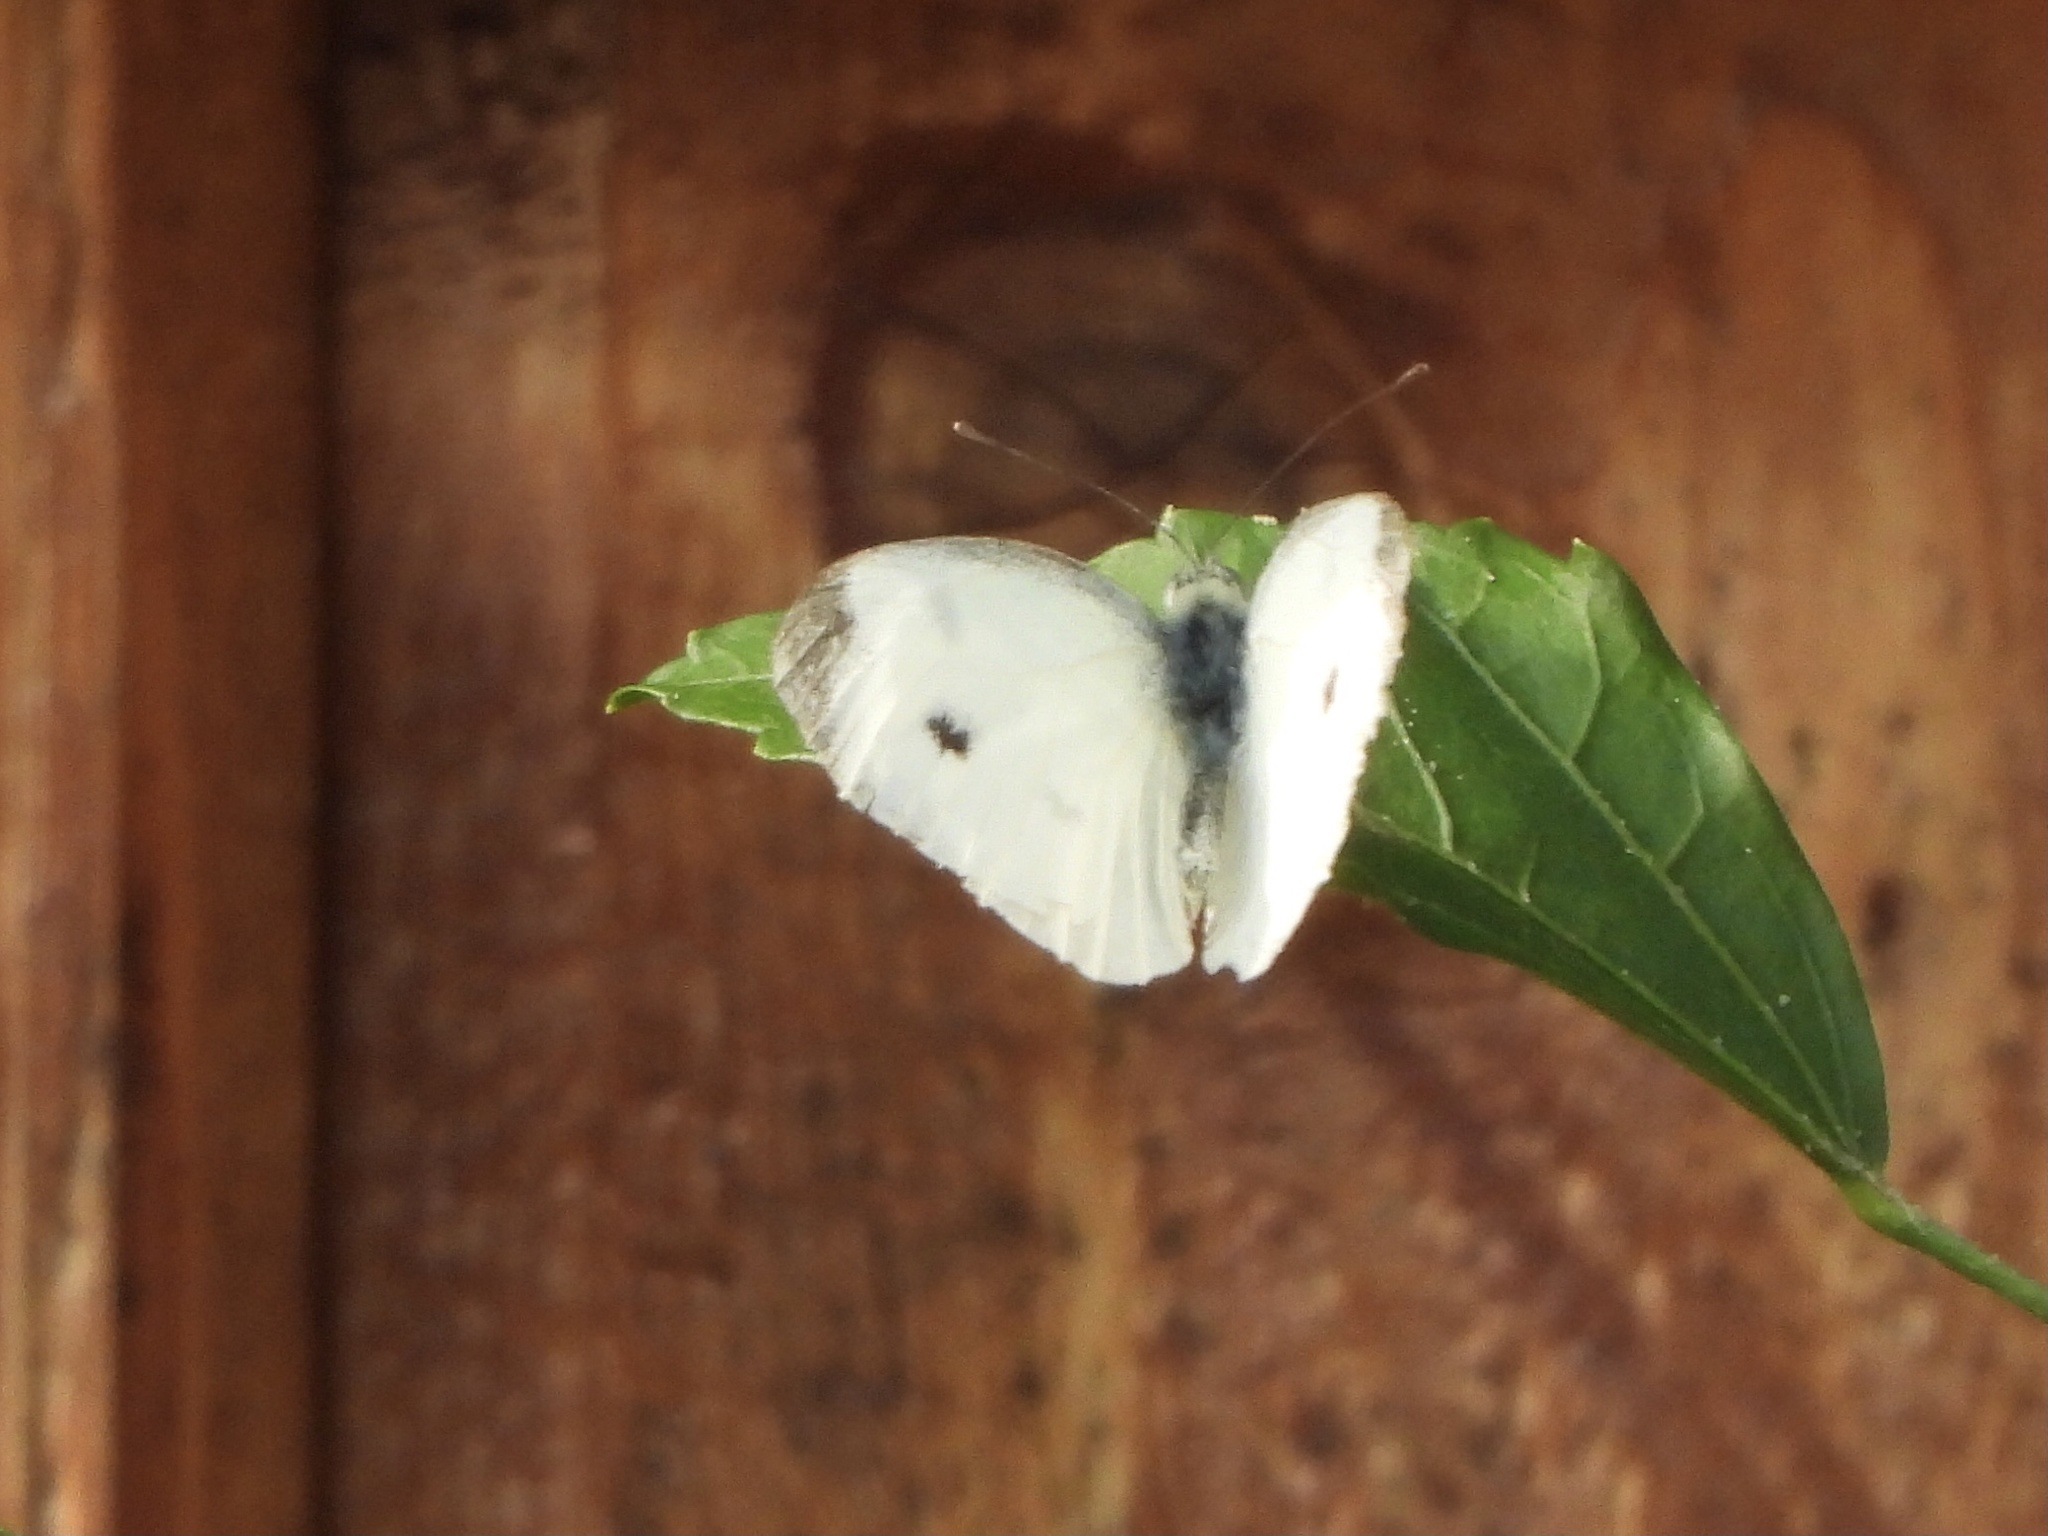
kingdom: Animalia
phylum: Arthropoda
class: Insecta
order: Lepidoptera
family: Pieridae
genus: Pieris
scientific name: Pieris rapae
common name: Small white
